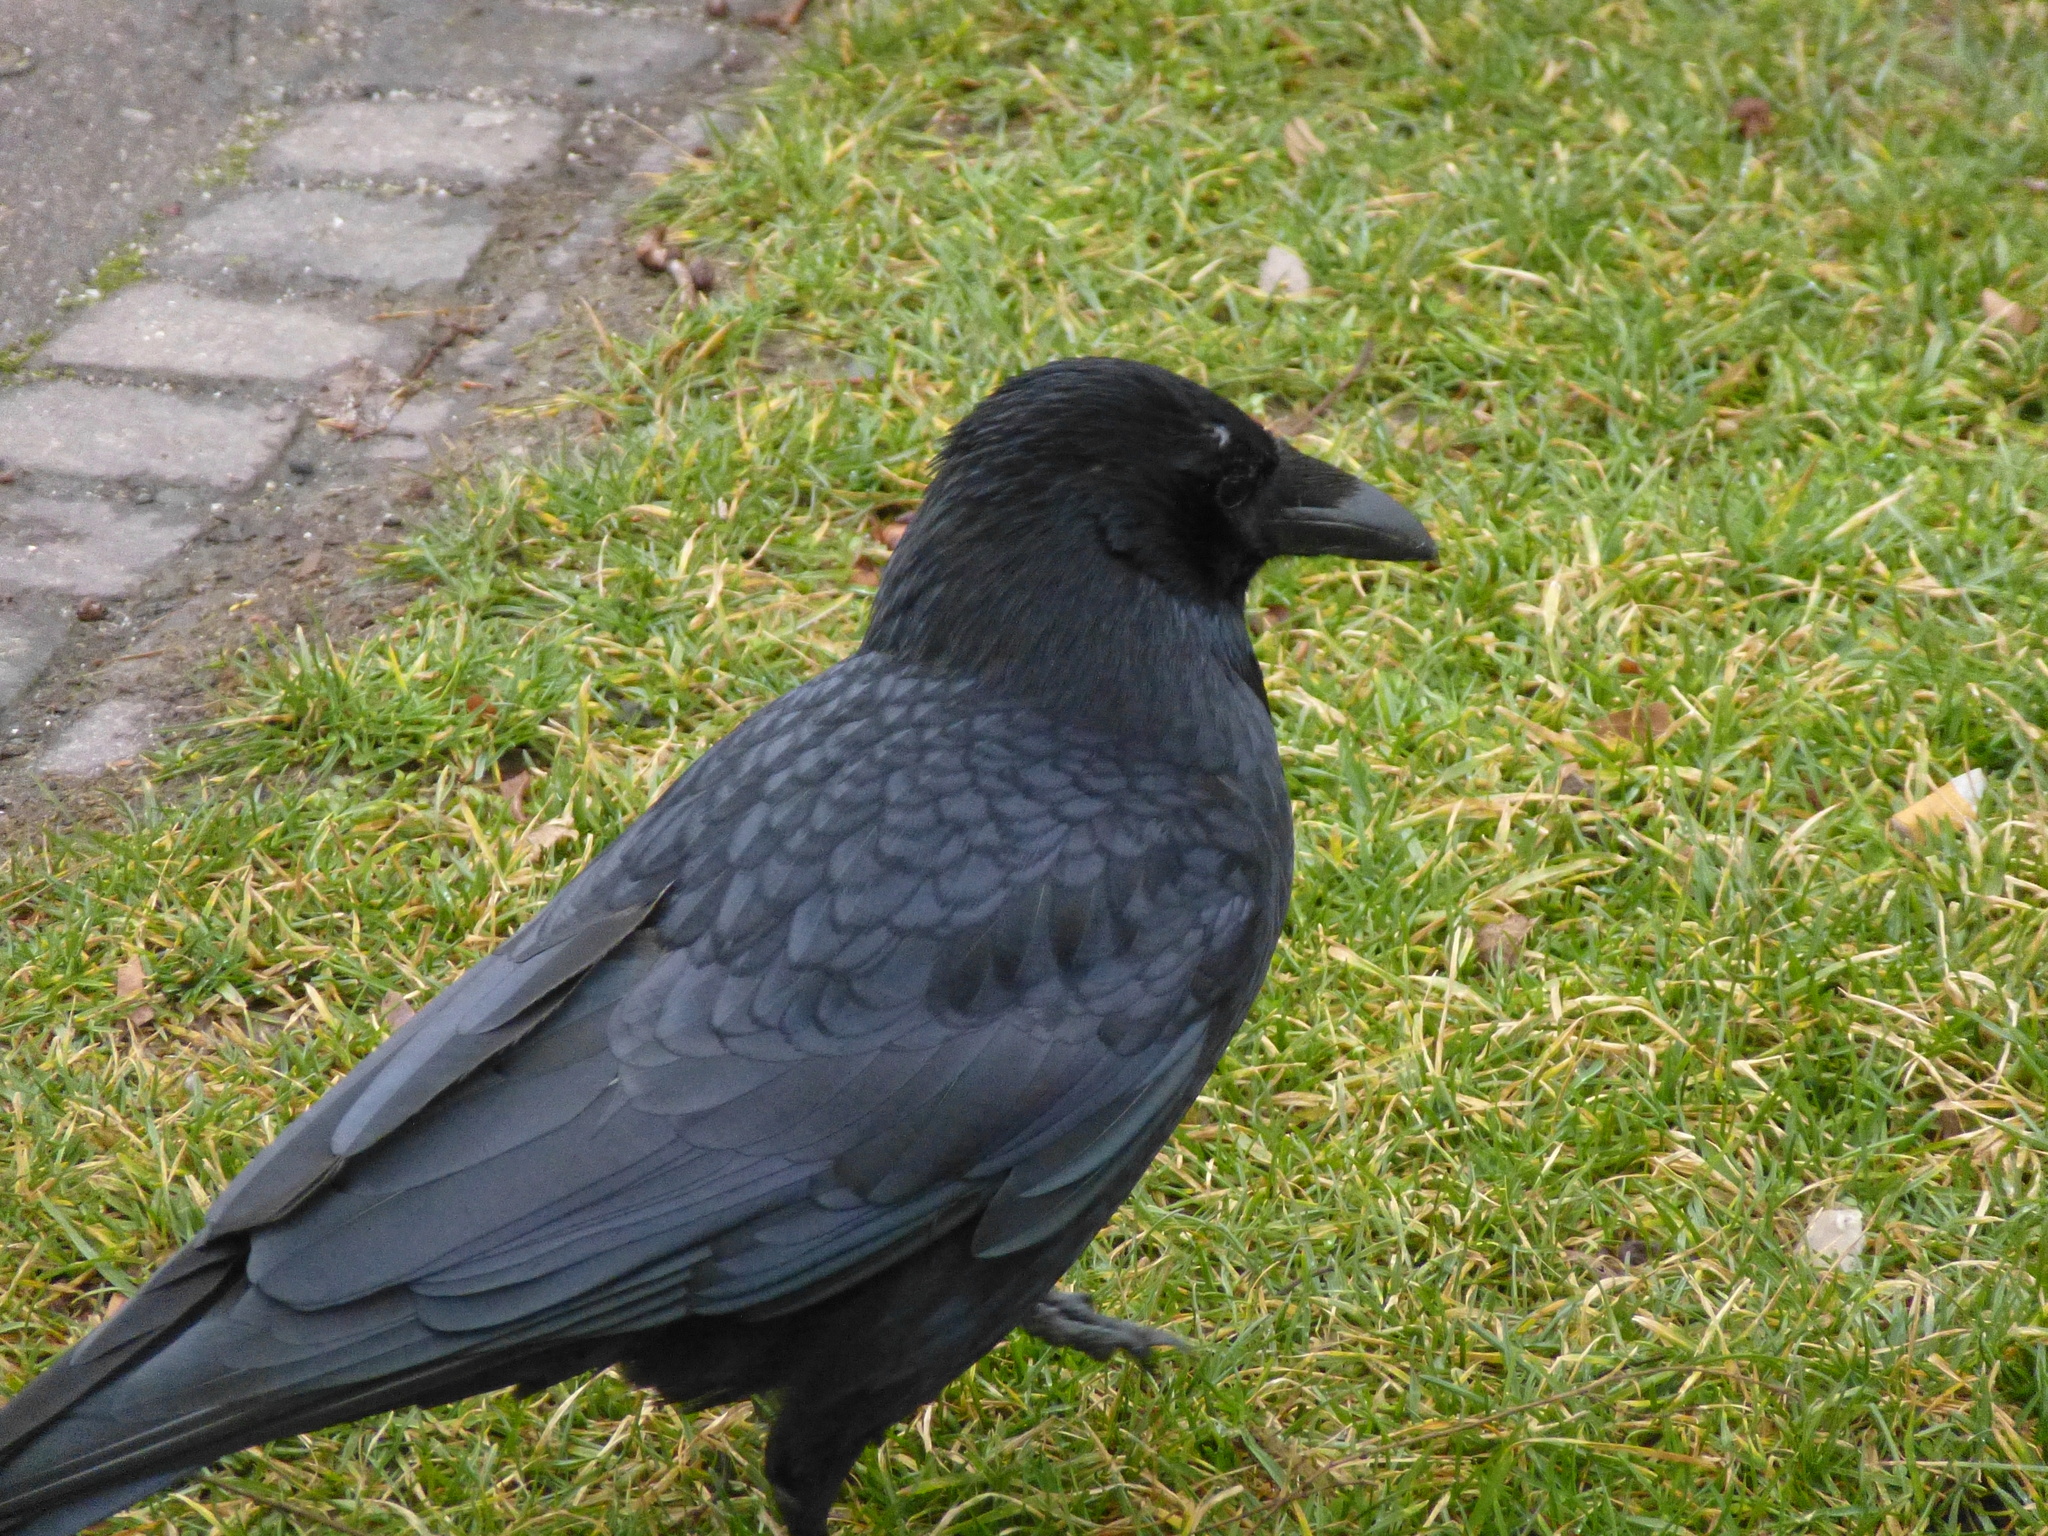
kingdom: Animalia
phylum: Chordata
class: Aves
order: Passeriformes
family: Corvidae
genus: Corvus
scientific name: Corvus corone
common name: Carrion crow
